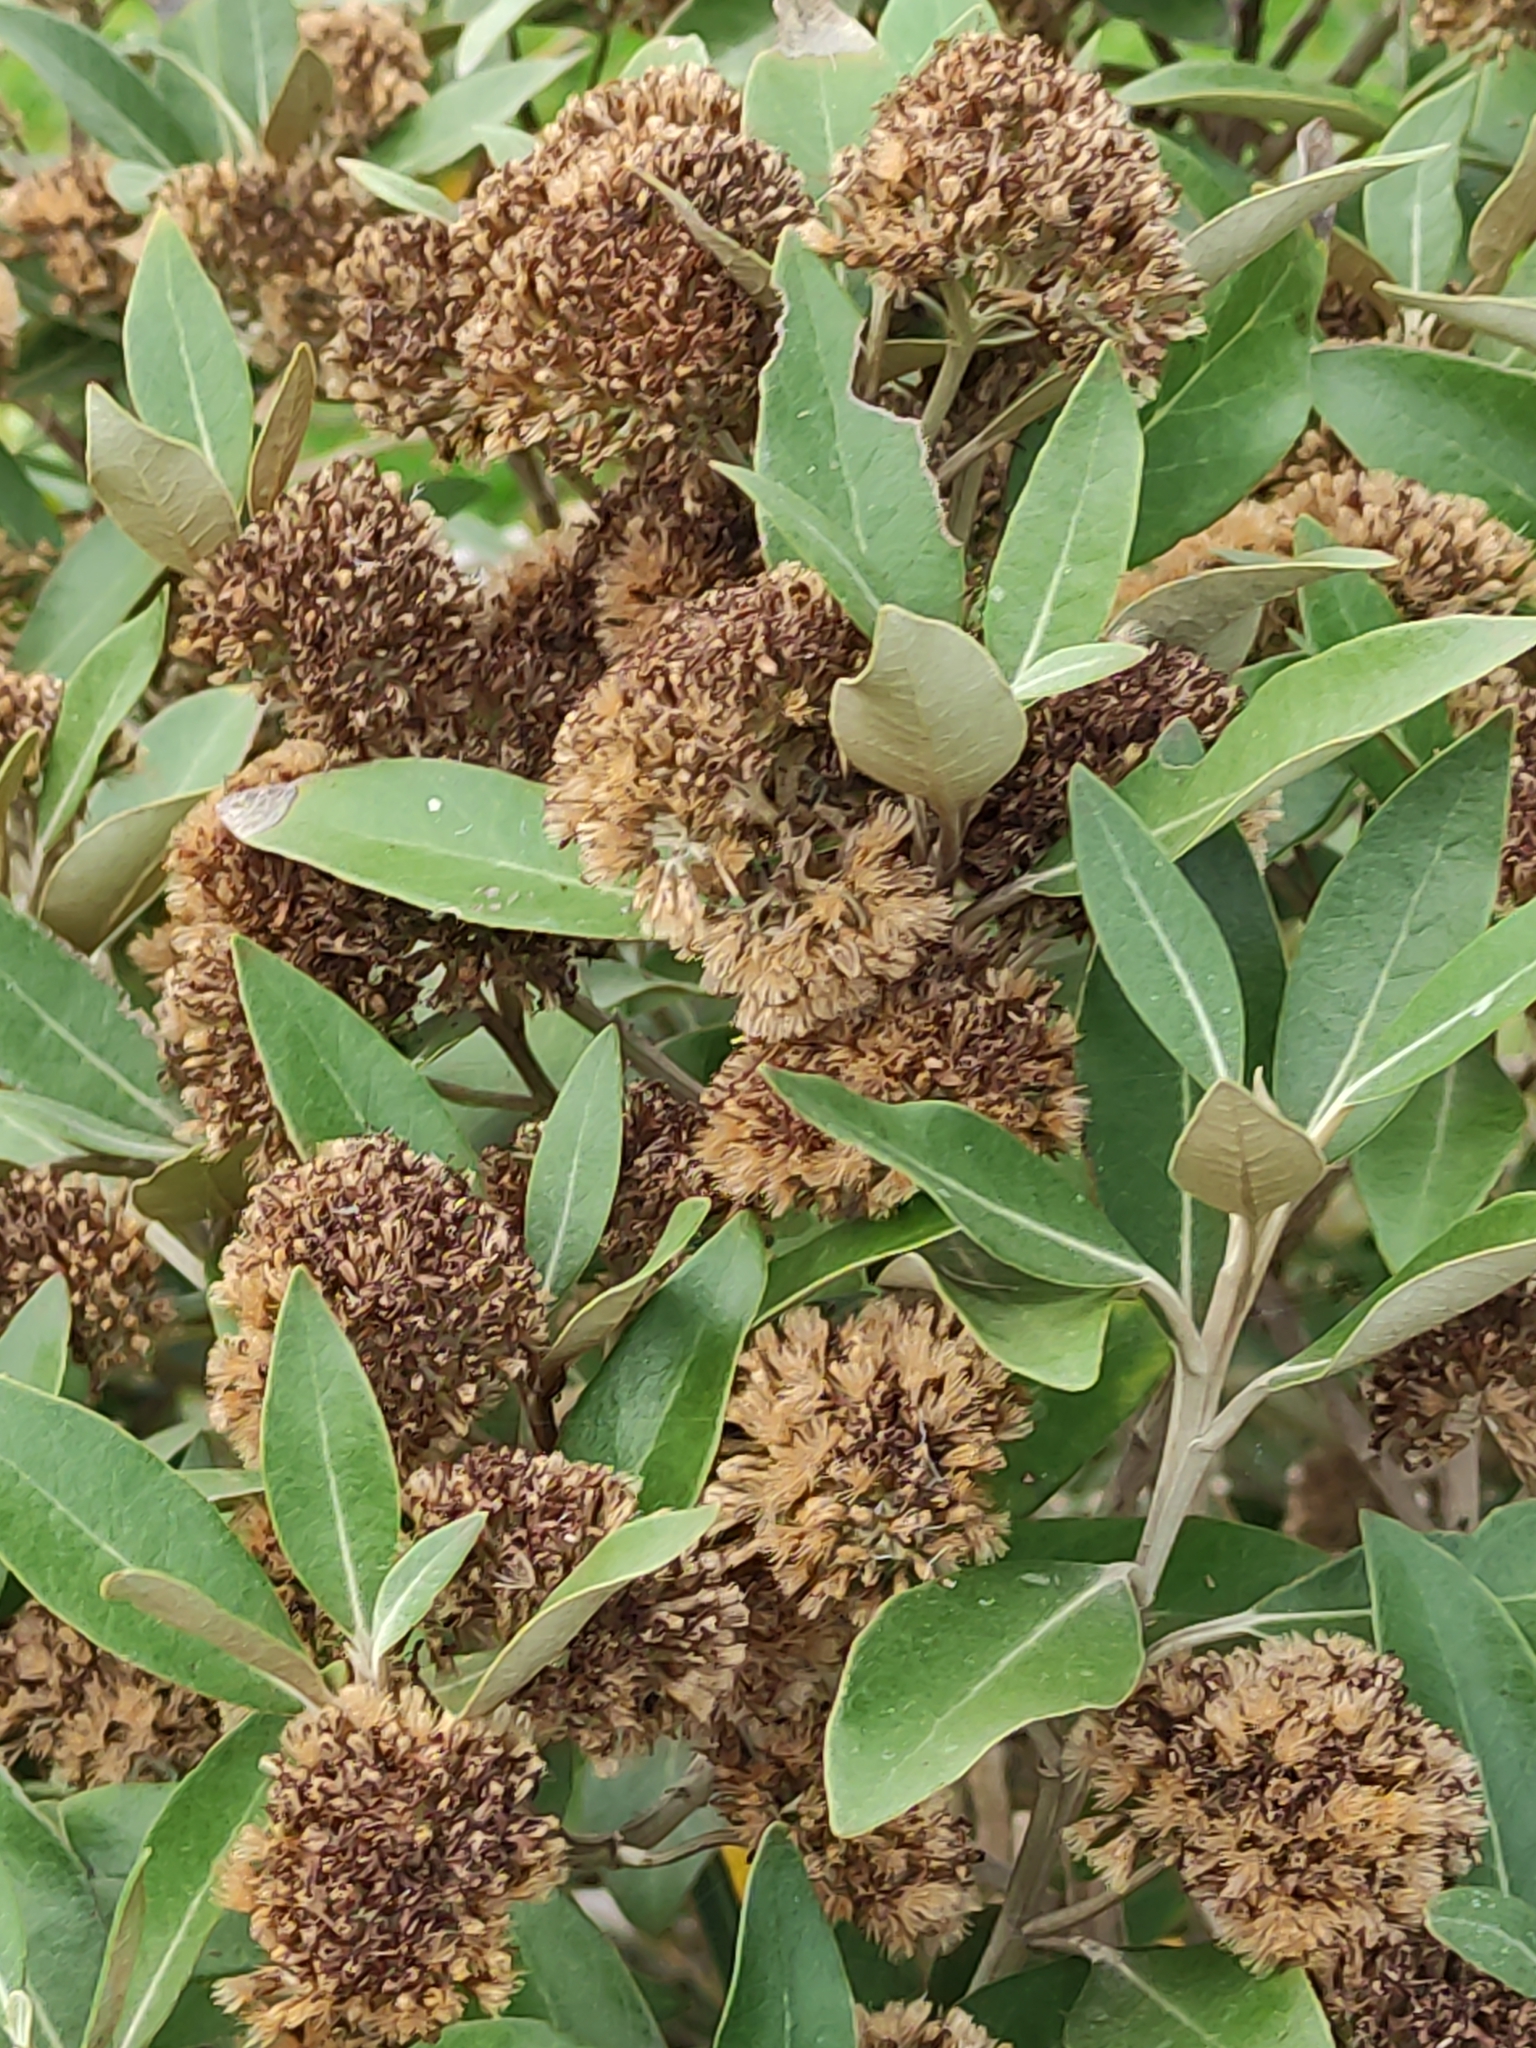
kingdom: Plantae
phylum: Tracheophyta
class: Magnoliopsida
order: Asterales
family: Asteraceae
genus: Olearia
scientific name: Olearia avicenniifolia
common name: Mangrove-leaf daisybush
